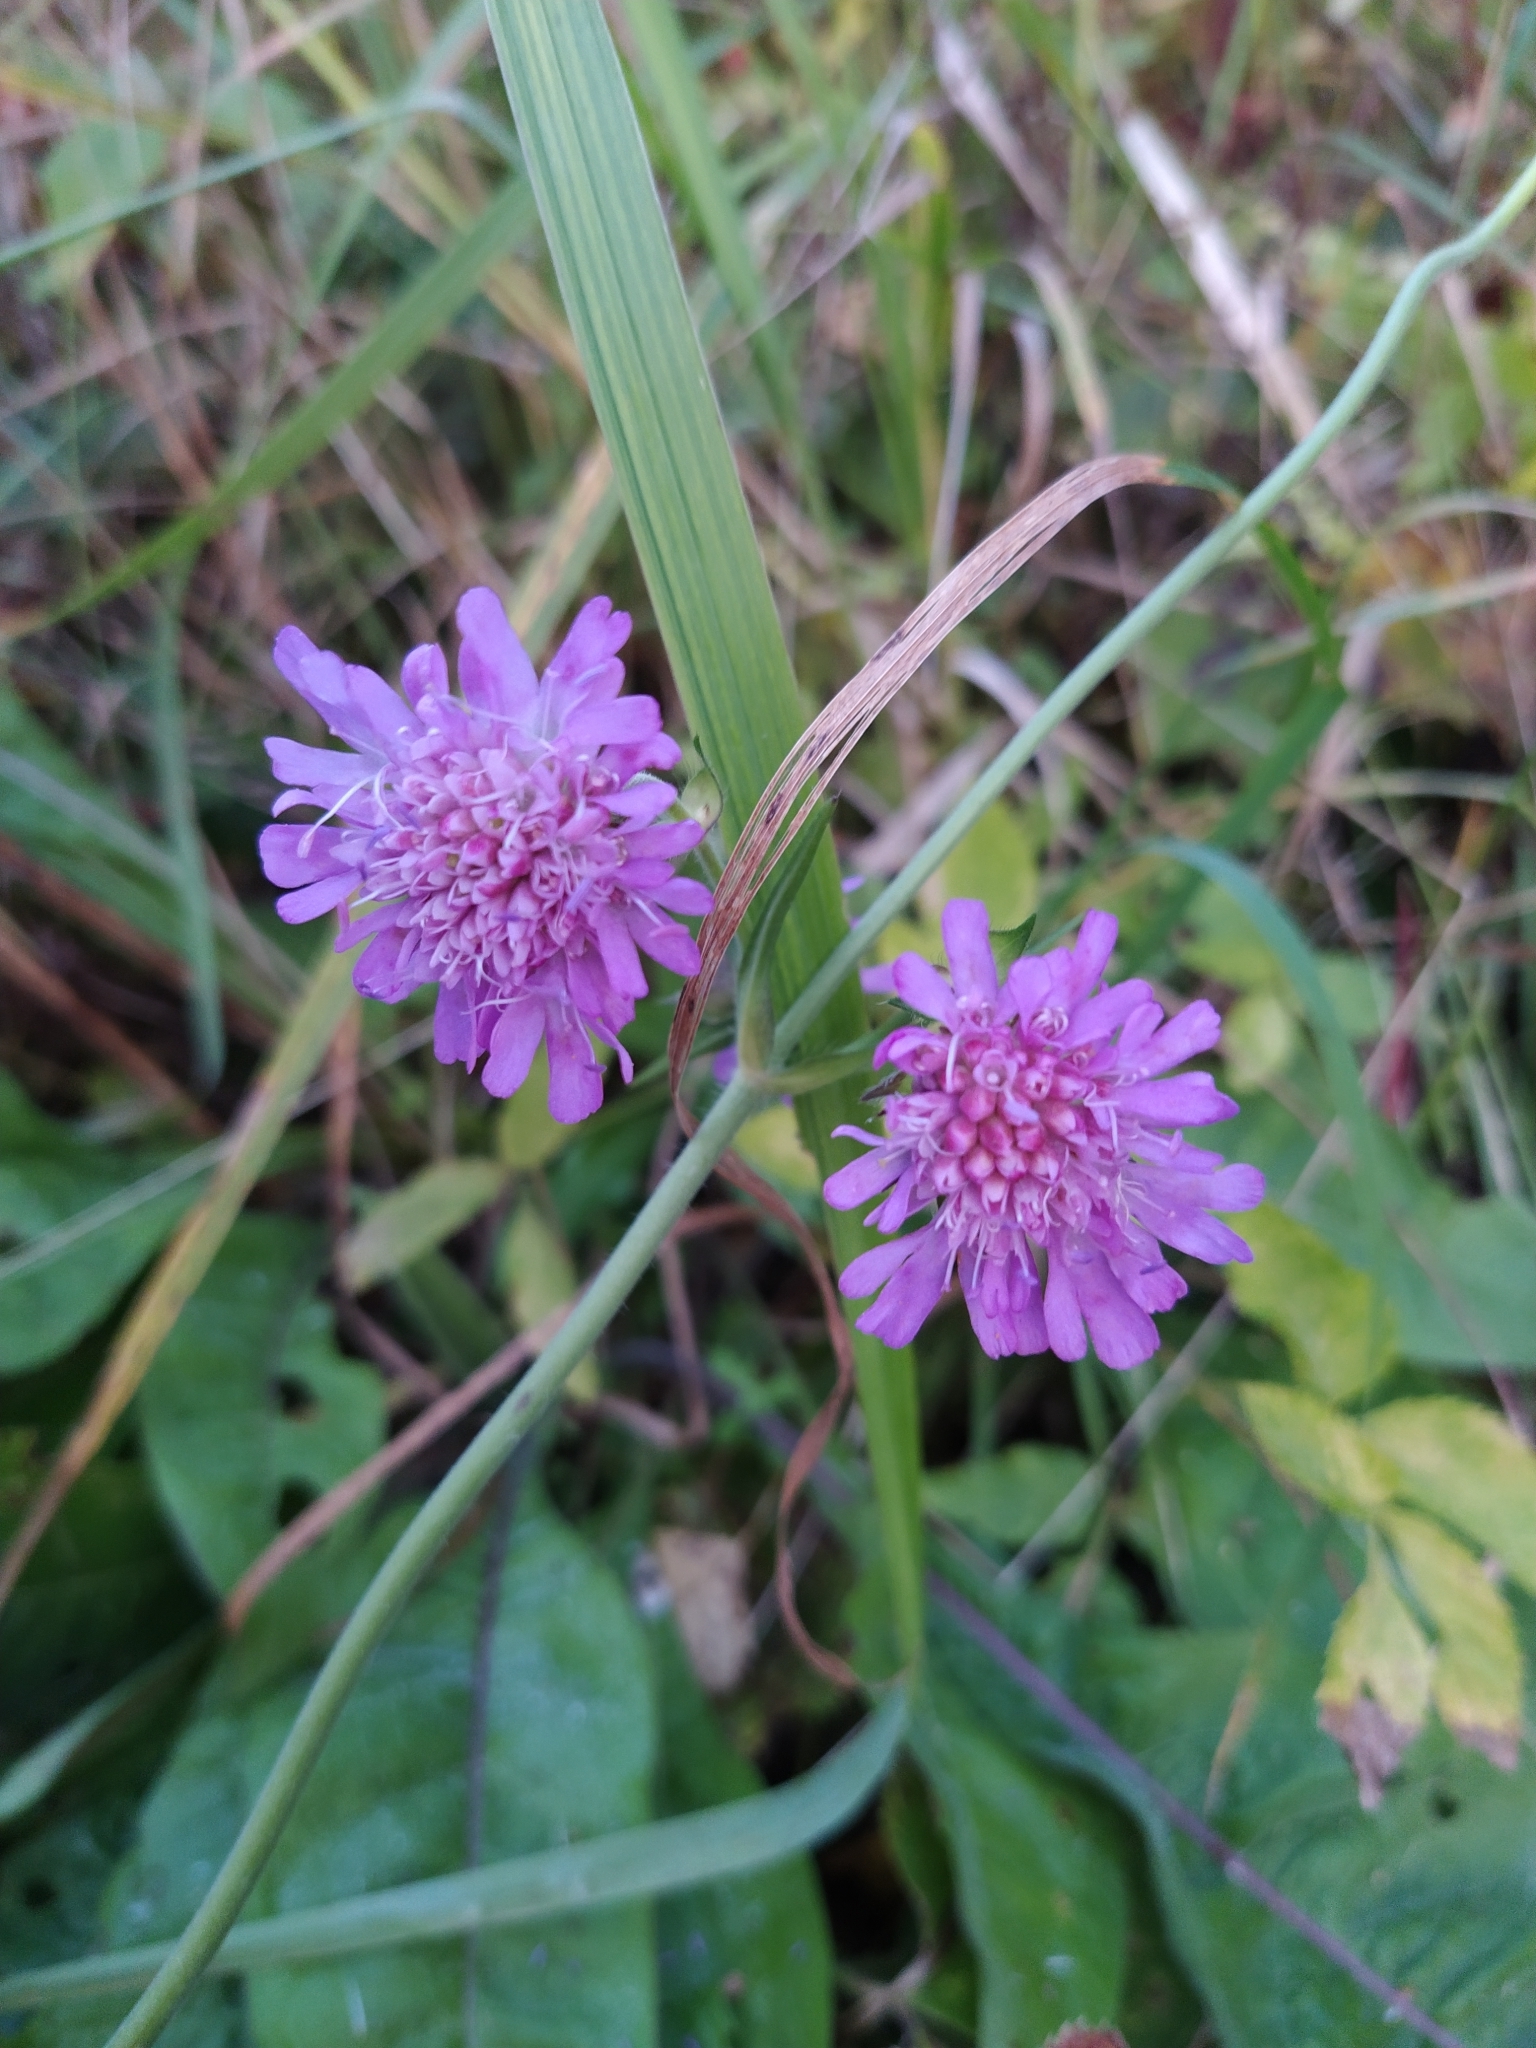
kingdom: Plantae
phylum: Tracheophyta
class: Magnoliopsida
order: Dipsacales
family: Caprifoliaceae
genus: Knautia
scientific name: Knautia arvensis
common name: Field scabiosa
